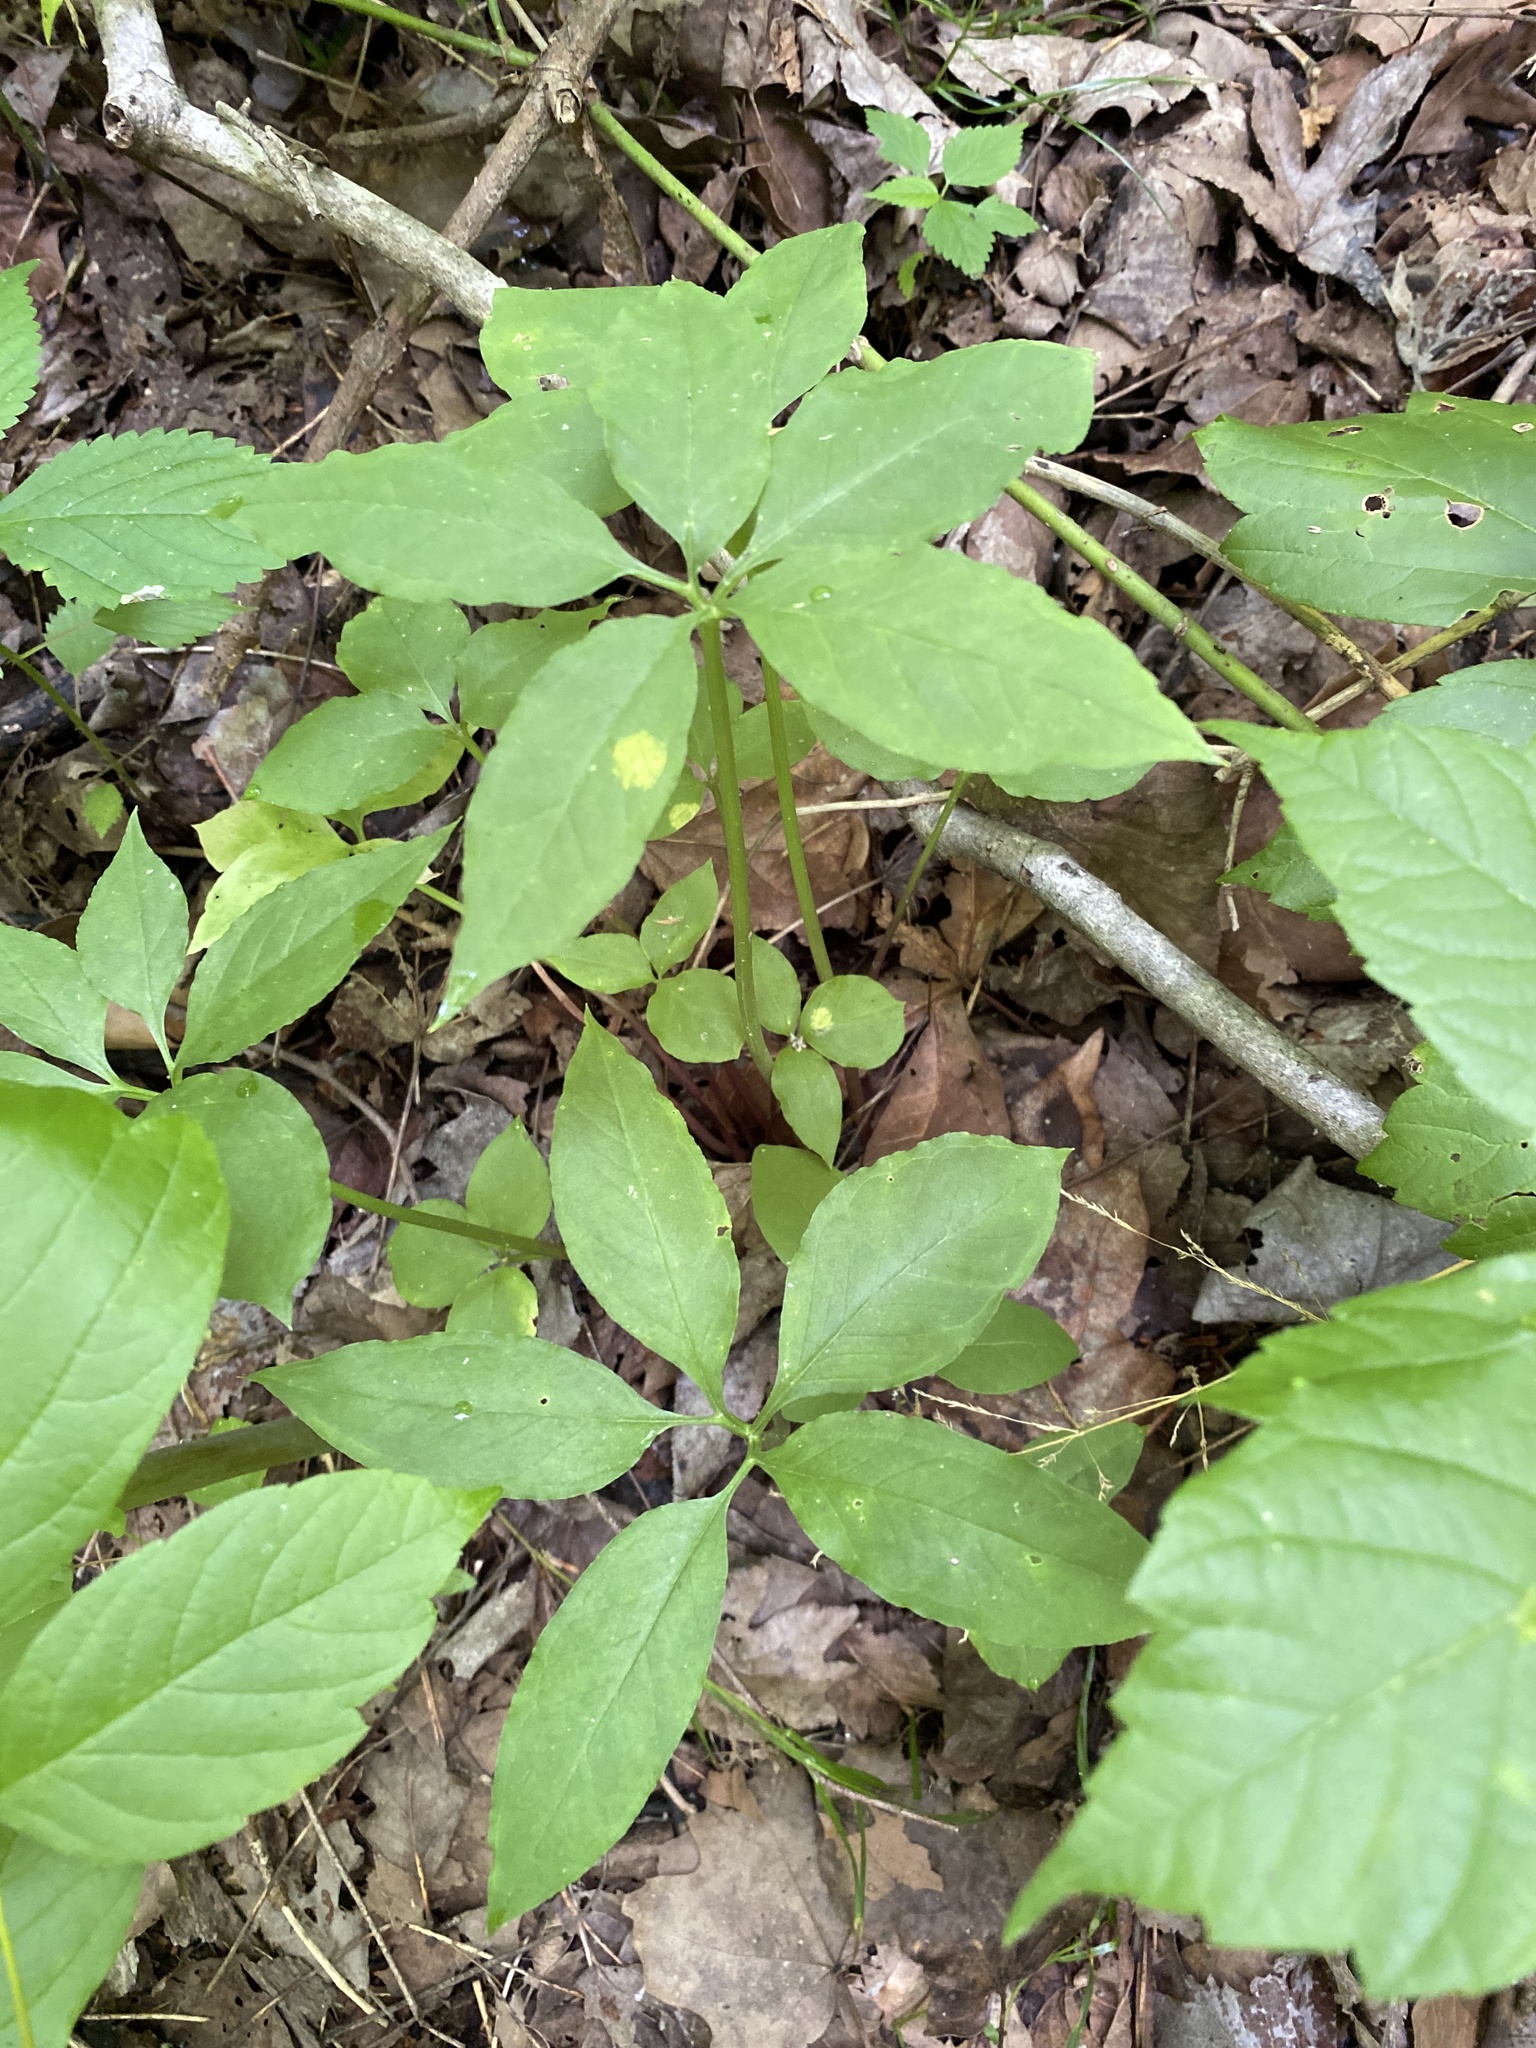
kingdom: Plantae
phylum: Tracheophyta
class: Liliopsida
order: Alismatales
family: Araceae
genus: Arisaema
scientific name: Arisaema dracontium
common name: Dragon-arum
